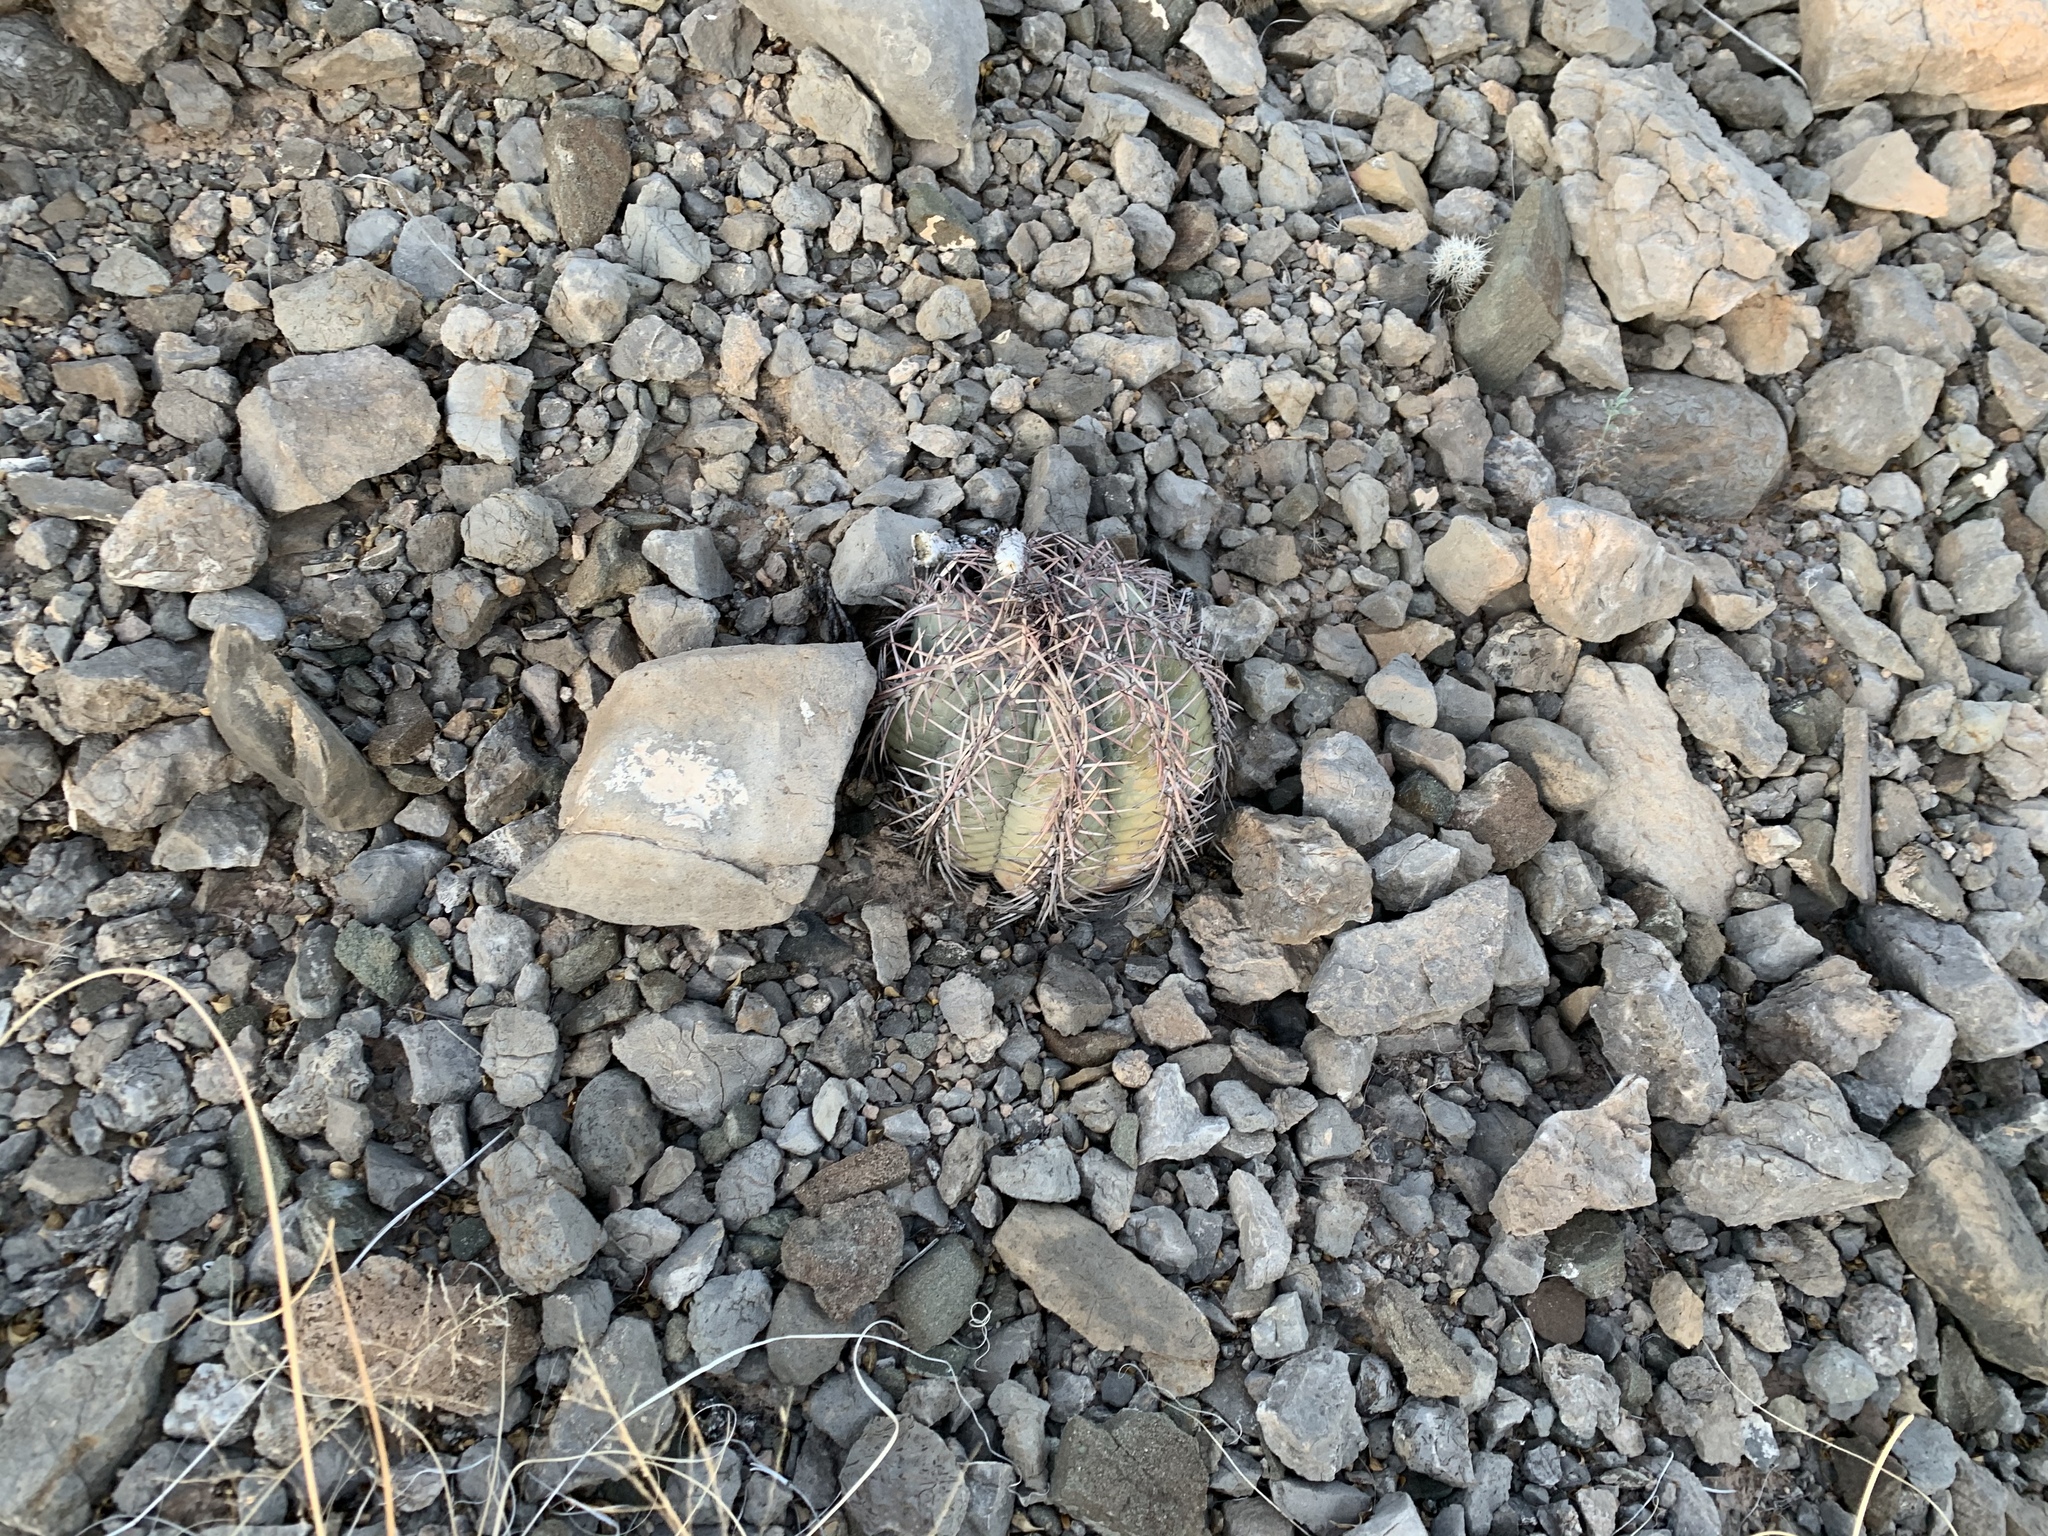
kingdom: Plantae
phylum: Tracheophyta
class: Magnoliopsida
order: Caryophyllales
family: Cactaceae
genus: Echinocactus
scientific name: Echinocactus horizonthalonius
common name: Devilshead
